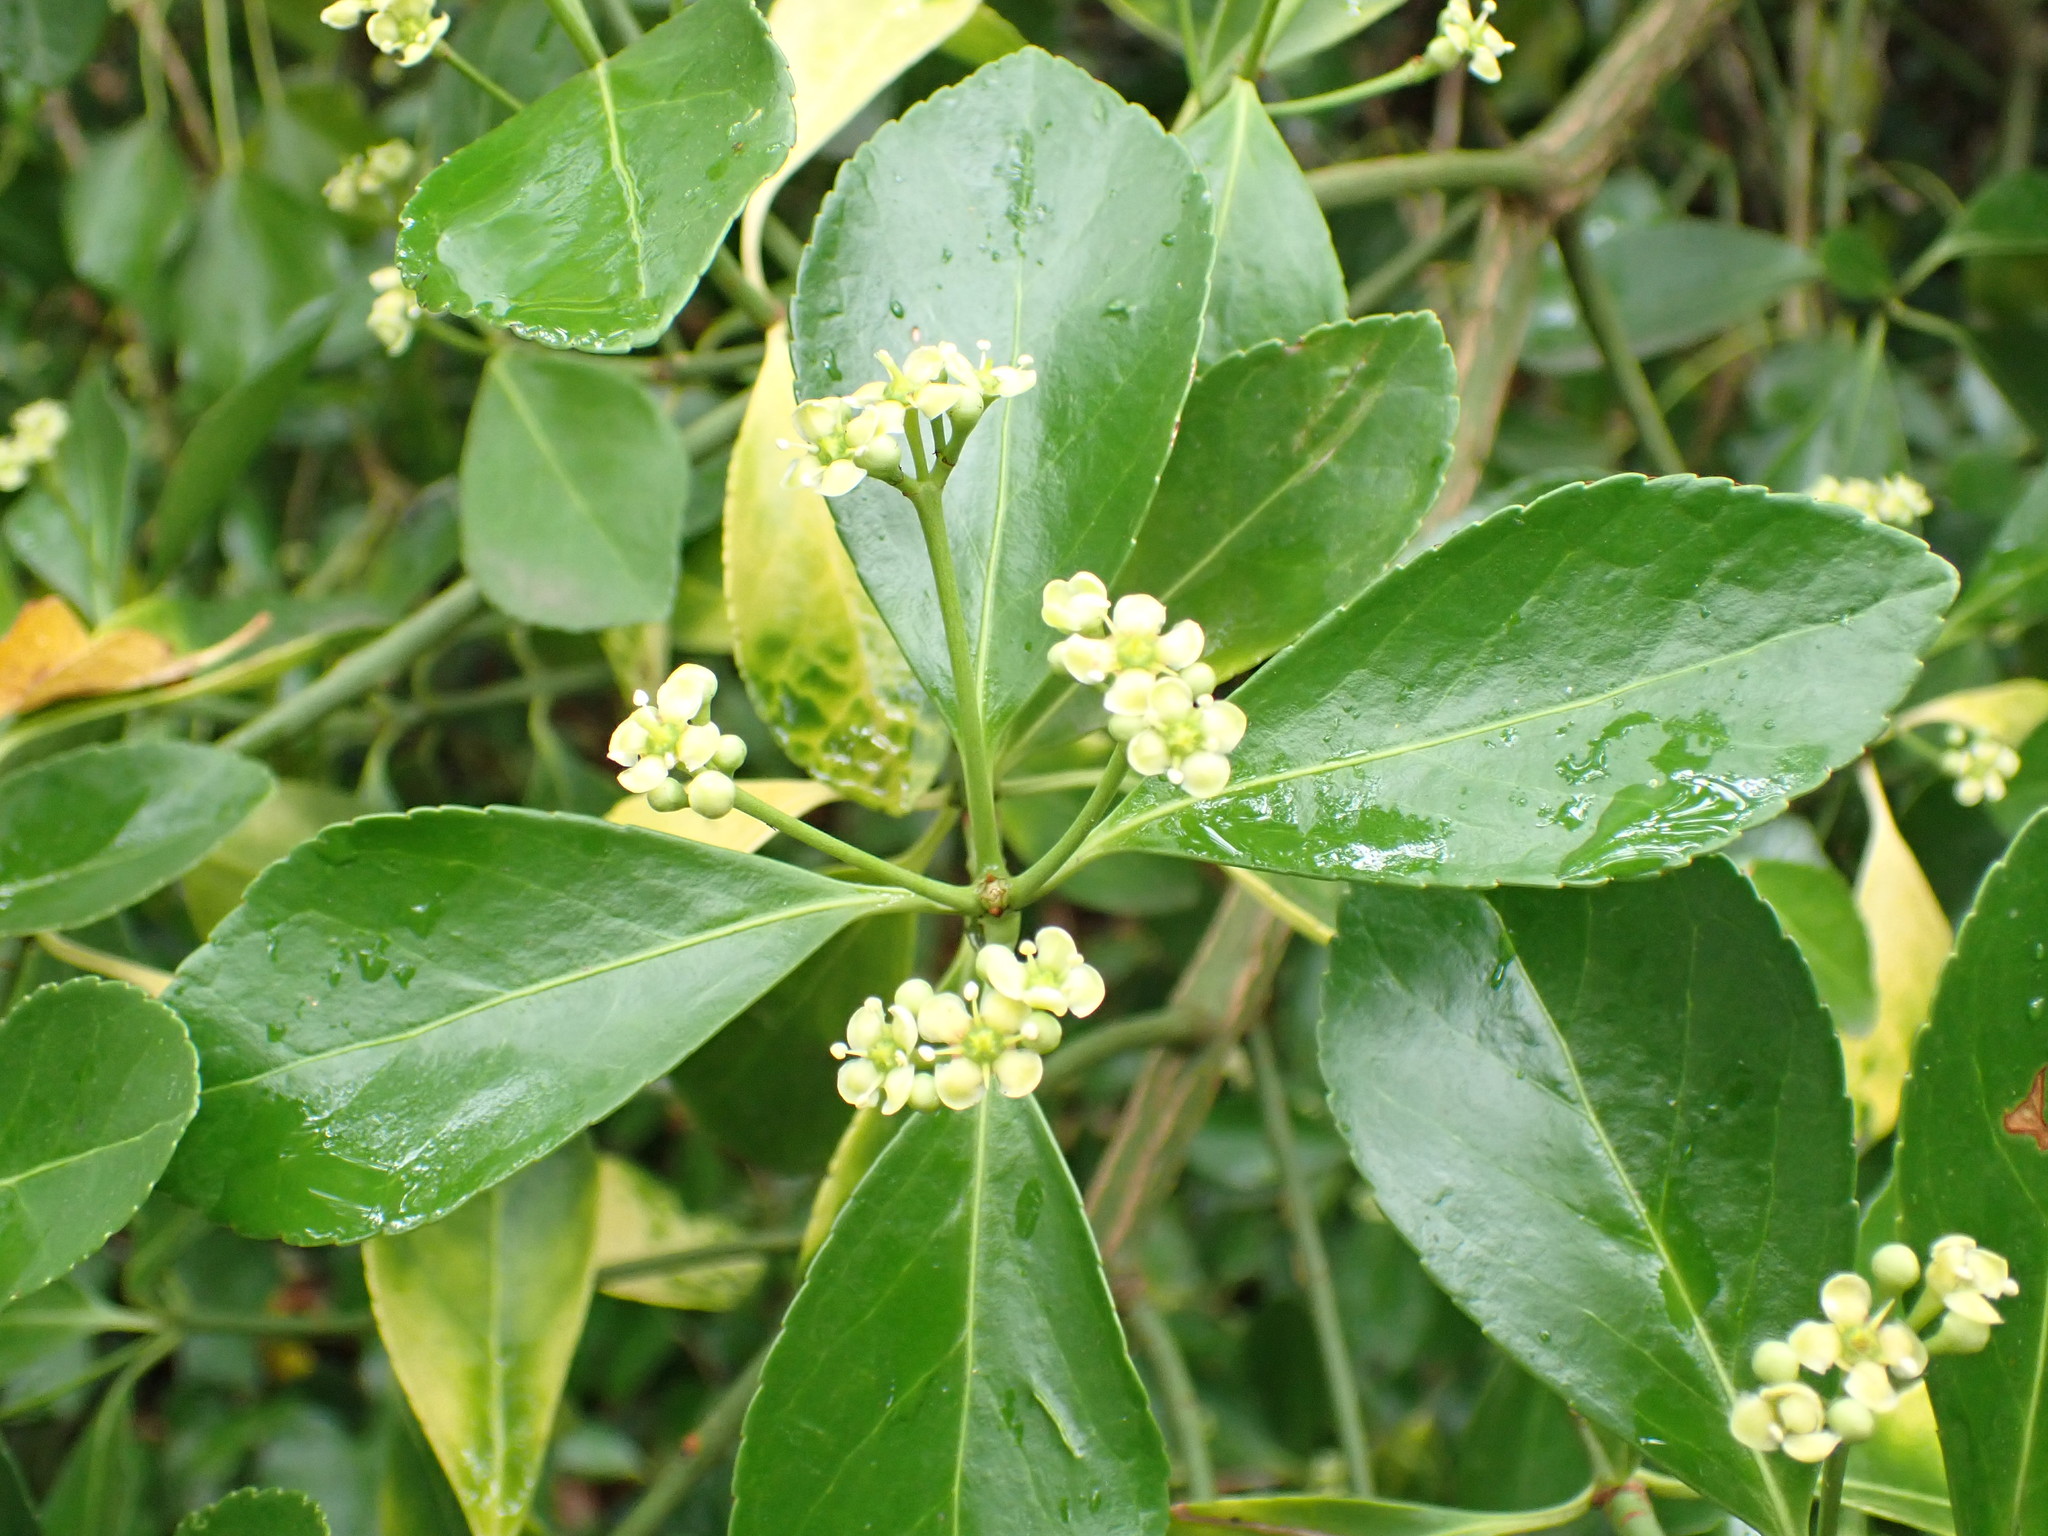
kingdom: Plantae
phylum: Tracheophyta
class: Magnoliopsida
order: Celastrales
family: Celastraceae
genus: Euonymus
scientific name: Euonymus japonicus
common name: Japanese spindletree
